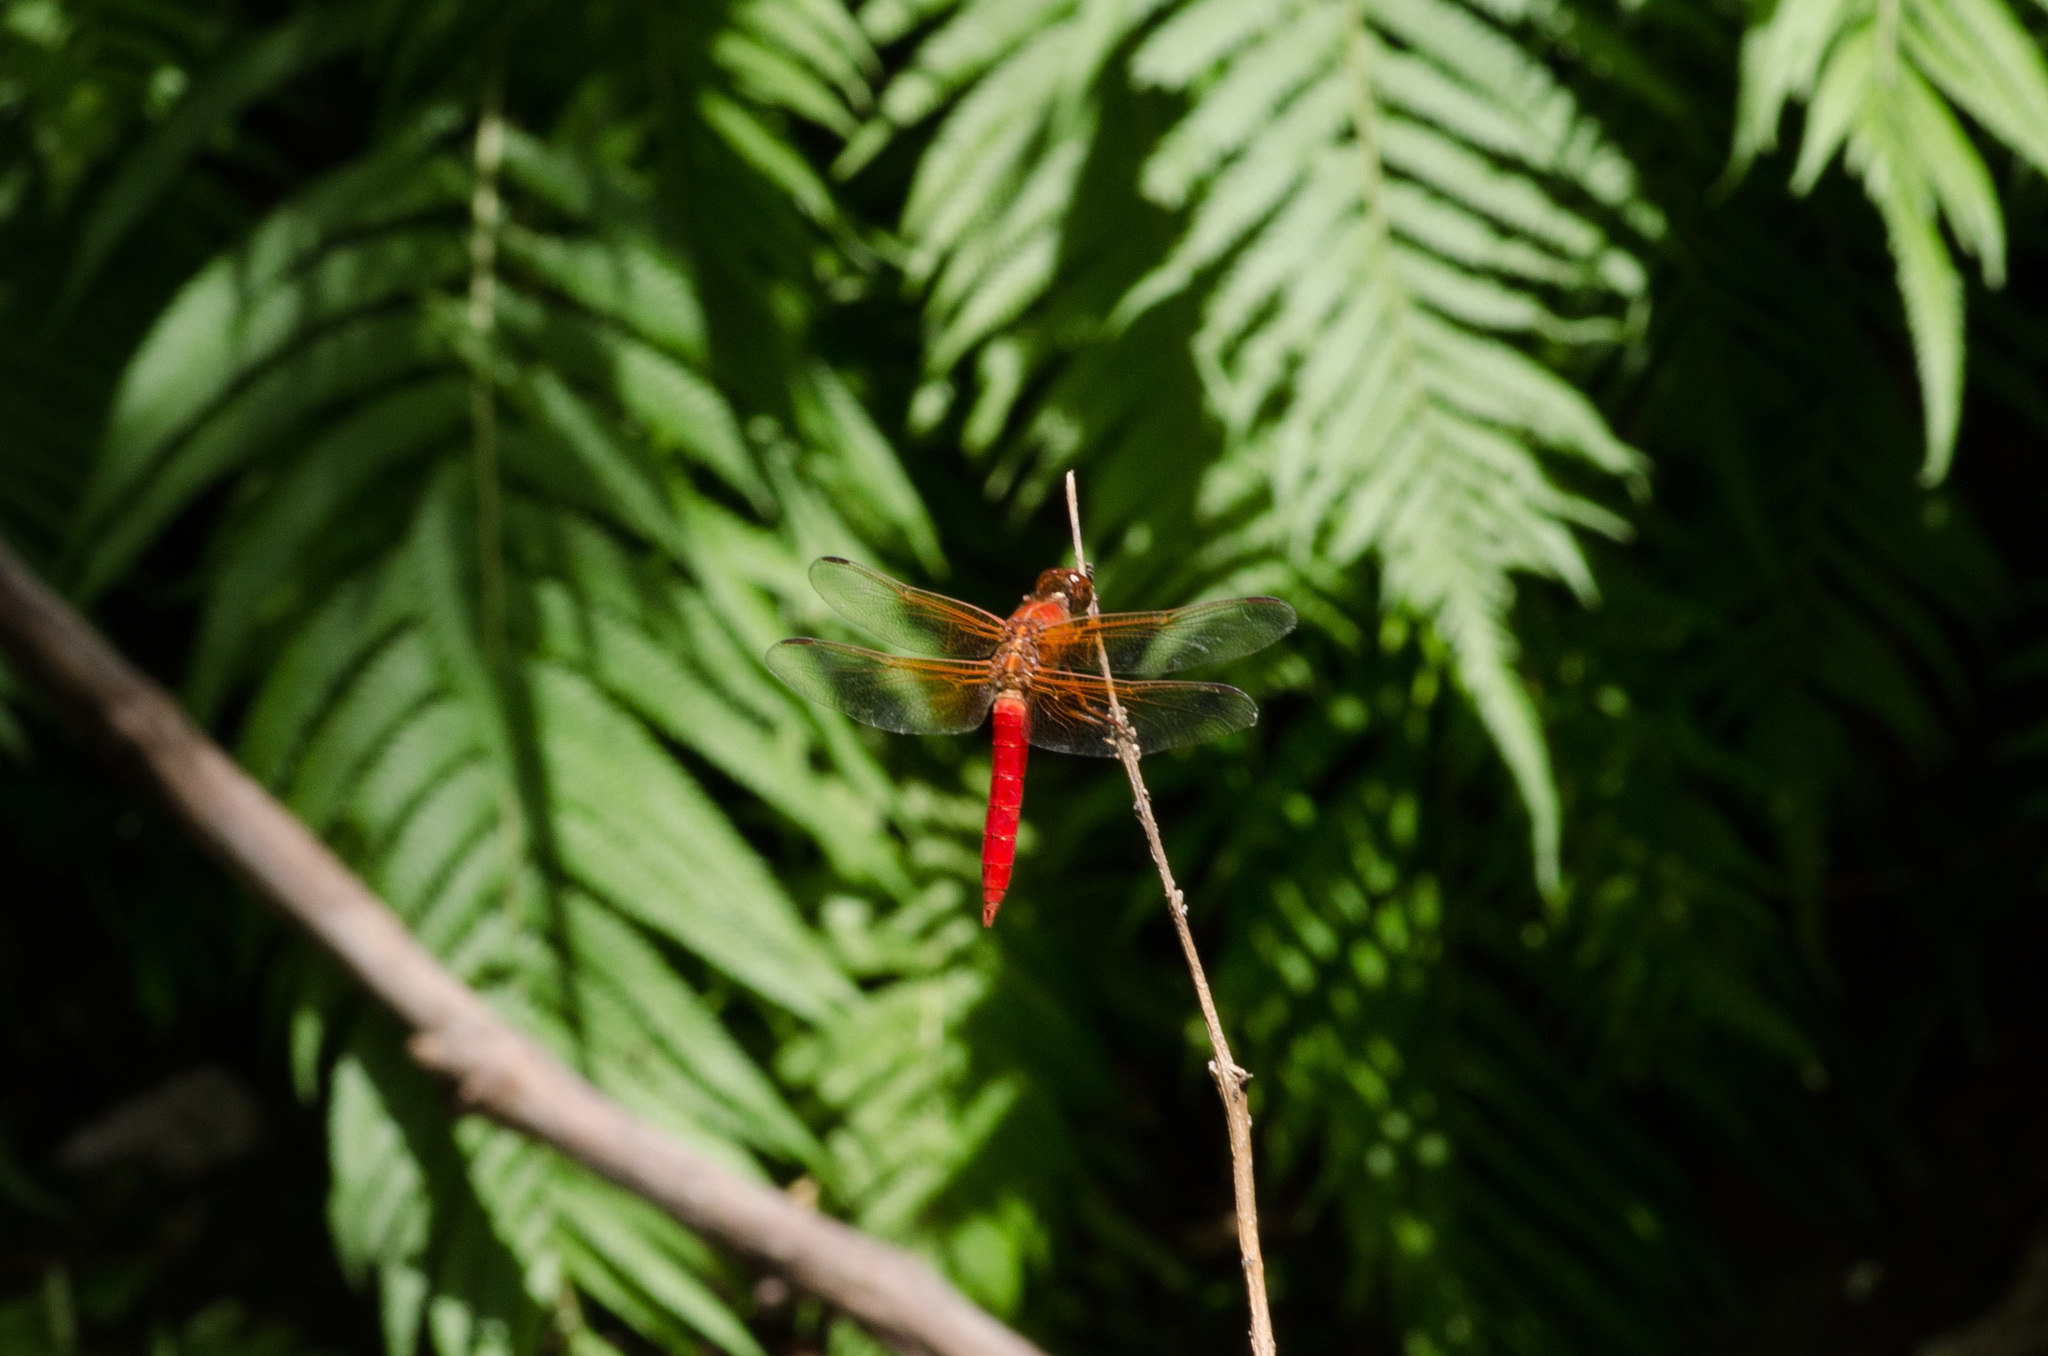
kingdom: Animalia
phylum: Arthropoda
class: Insecta
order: Odonata
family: Libellulidae
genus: Libellula
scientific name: Libellula croceipennis
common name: Neon skimmer
